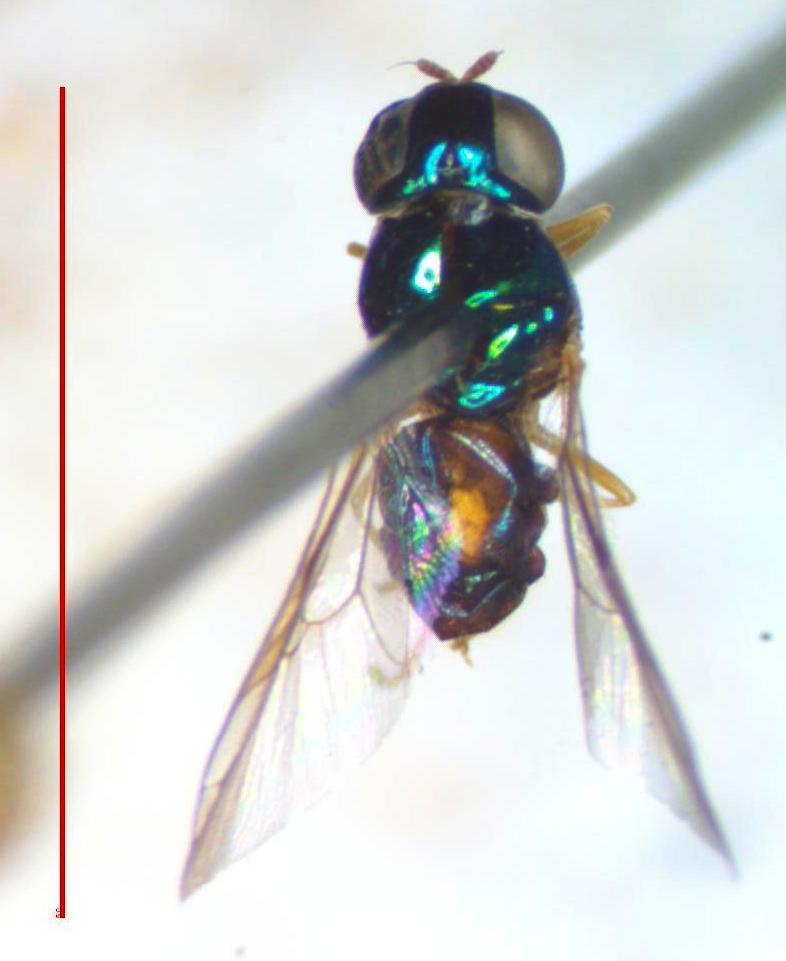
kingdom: Animalia
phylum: Arthropoda
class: Insecta
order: Diptera
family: Stratiomyidae
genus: Microchrysa
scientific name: Microchrysa bicolor
